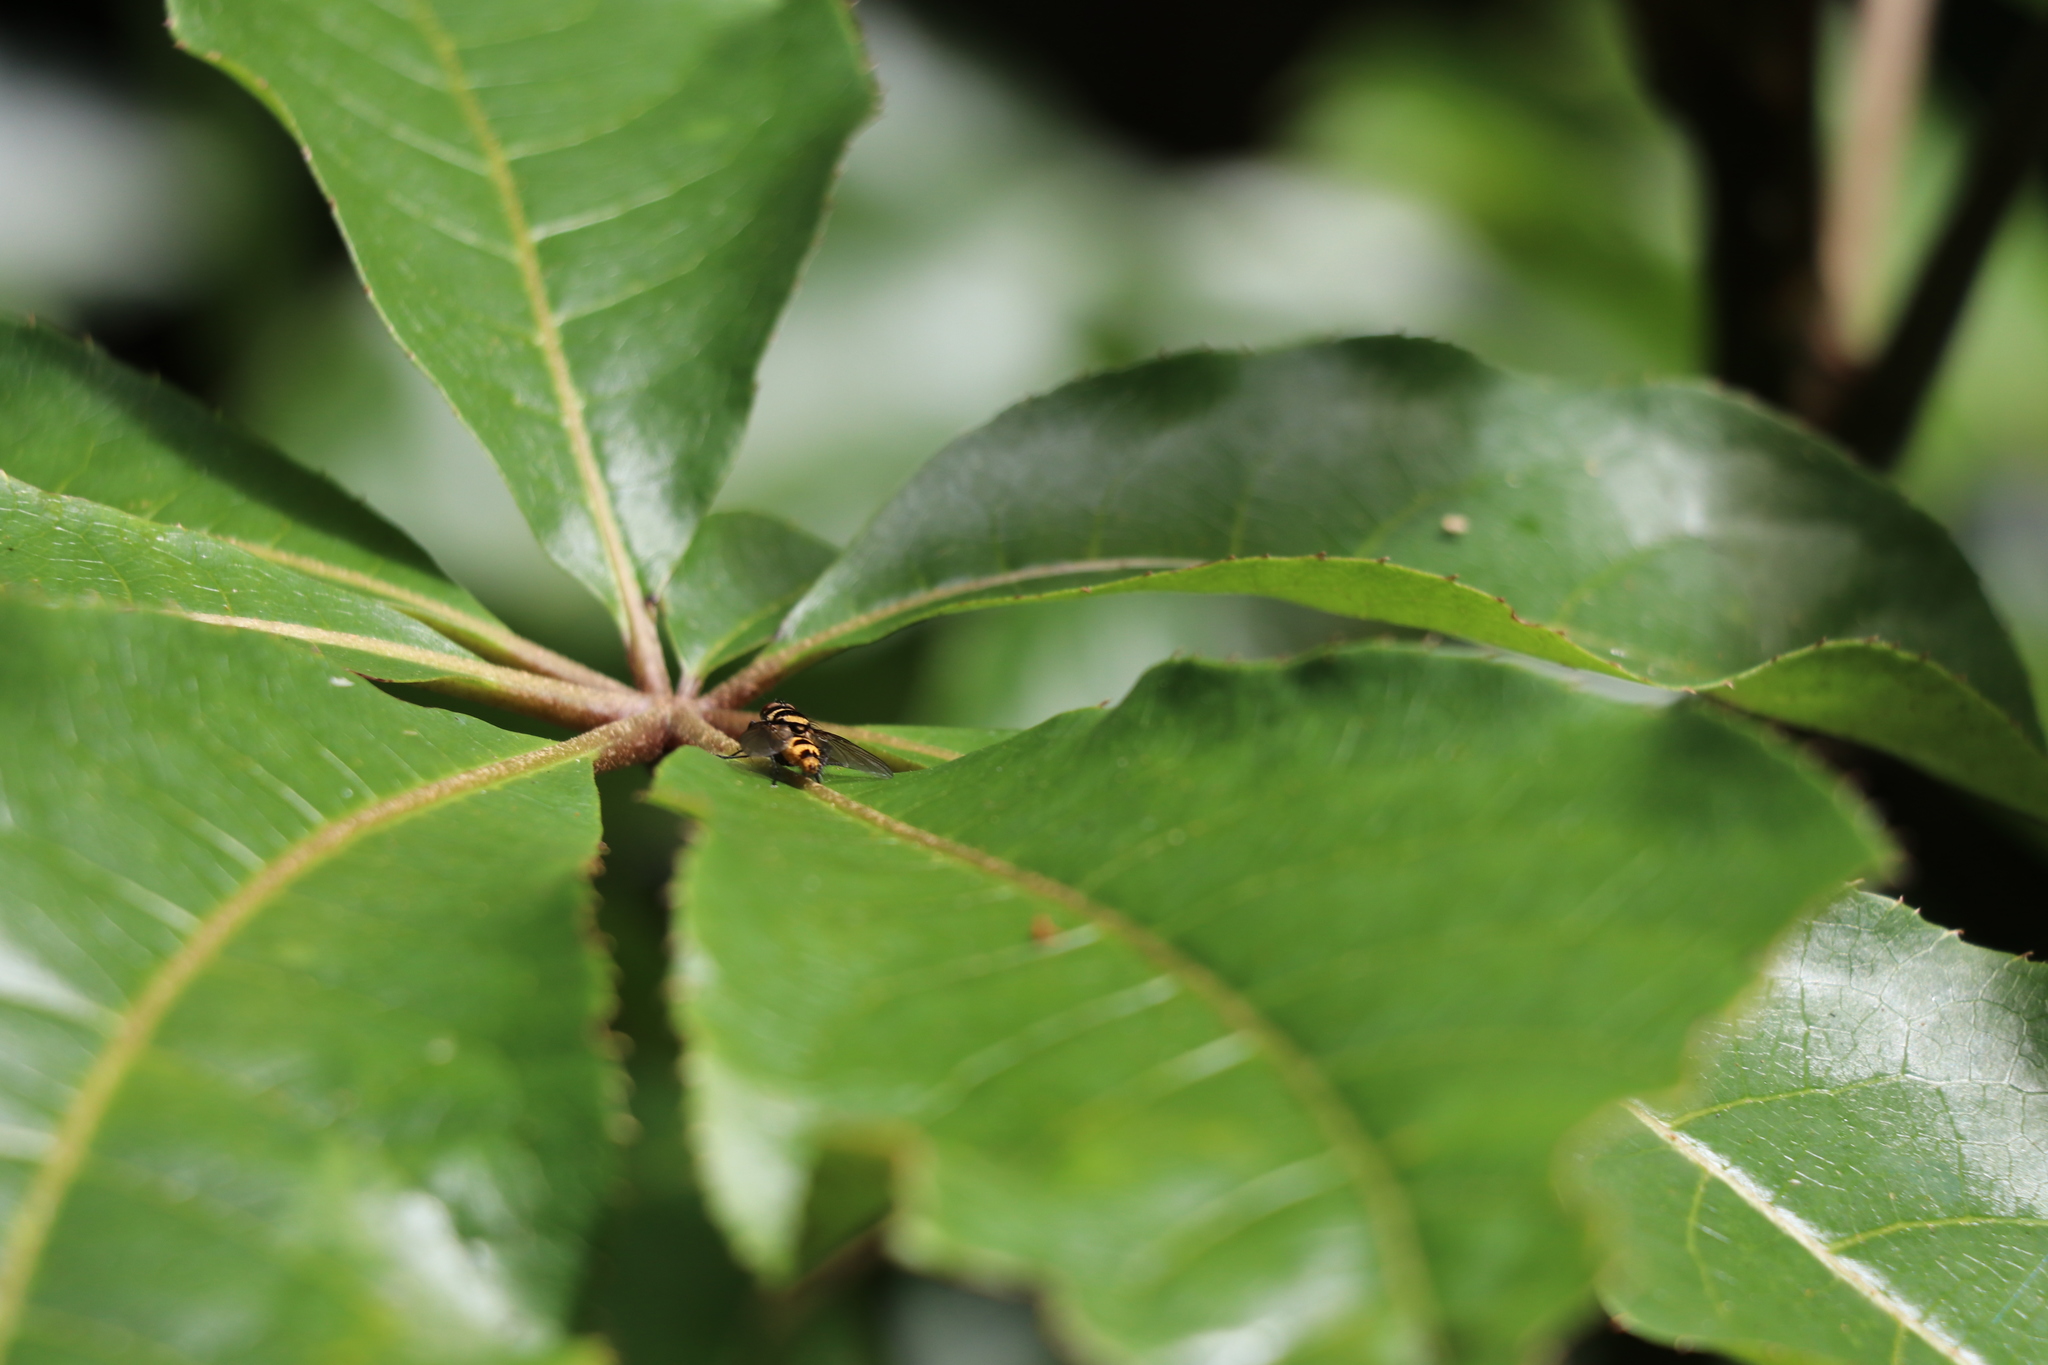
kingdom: Animalia
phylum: Arthropoda
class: Insecta
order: Diptera
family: Tachinidae
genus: Trigonospila
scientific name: Trigonospila brevifacies
